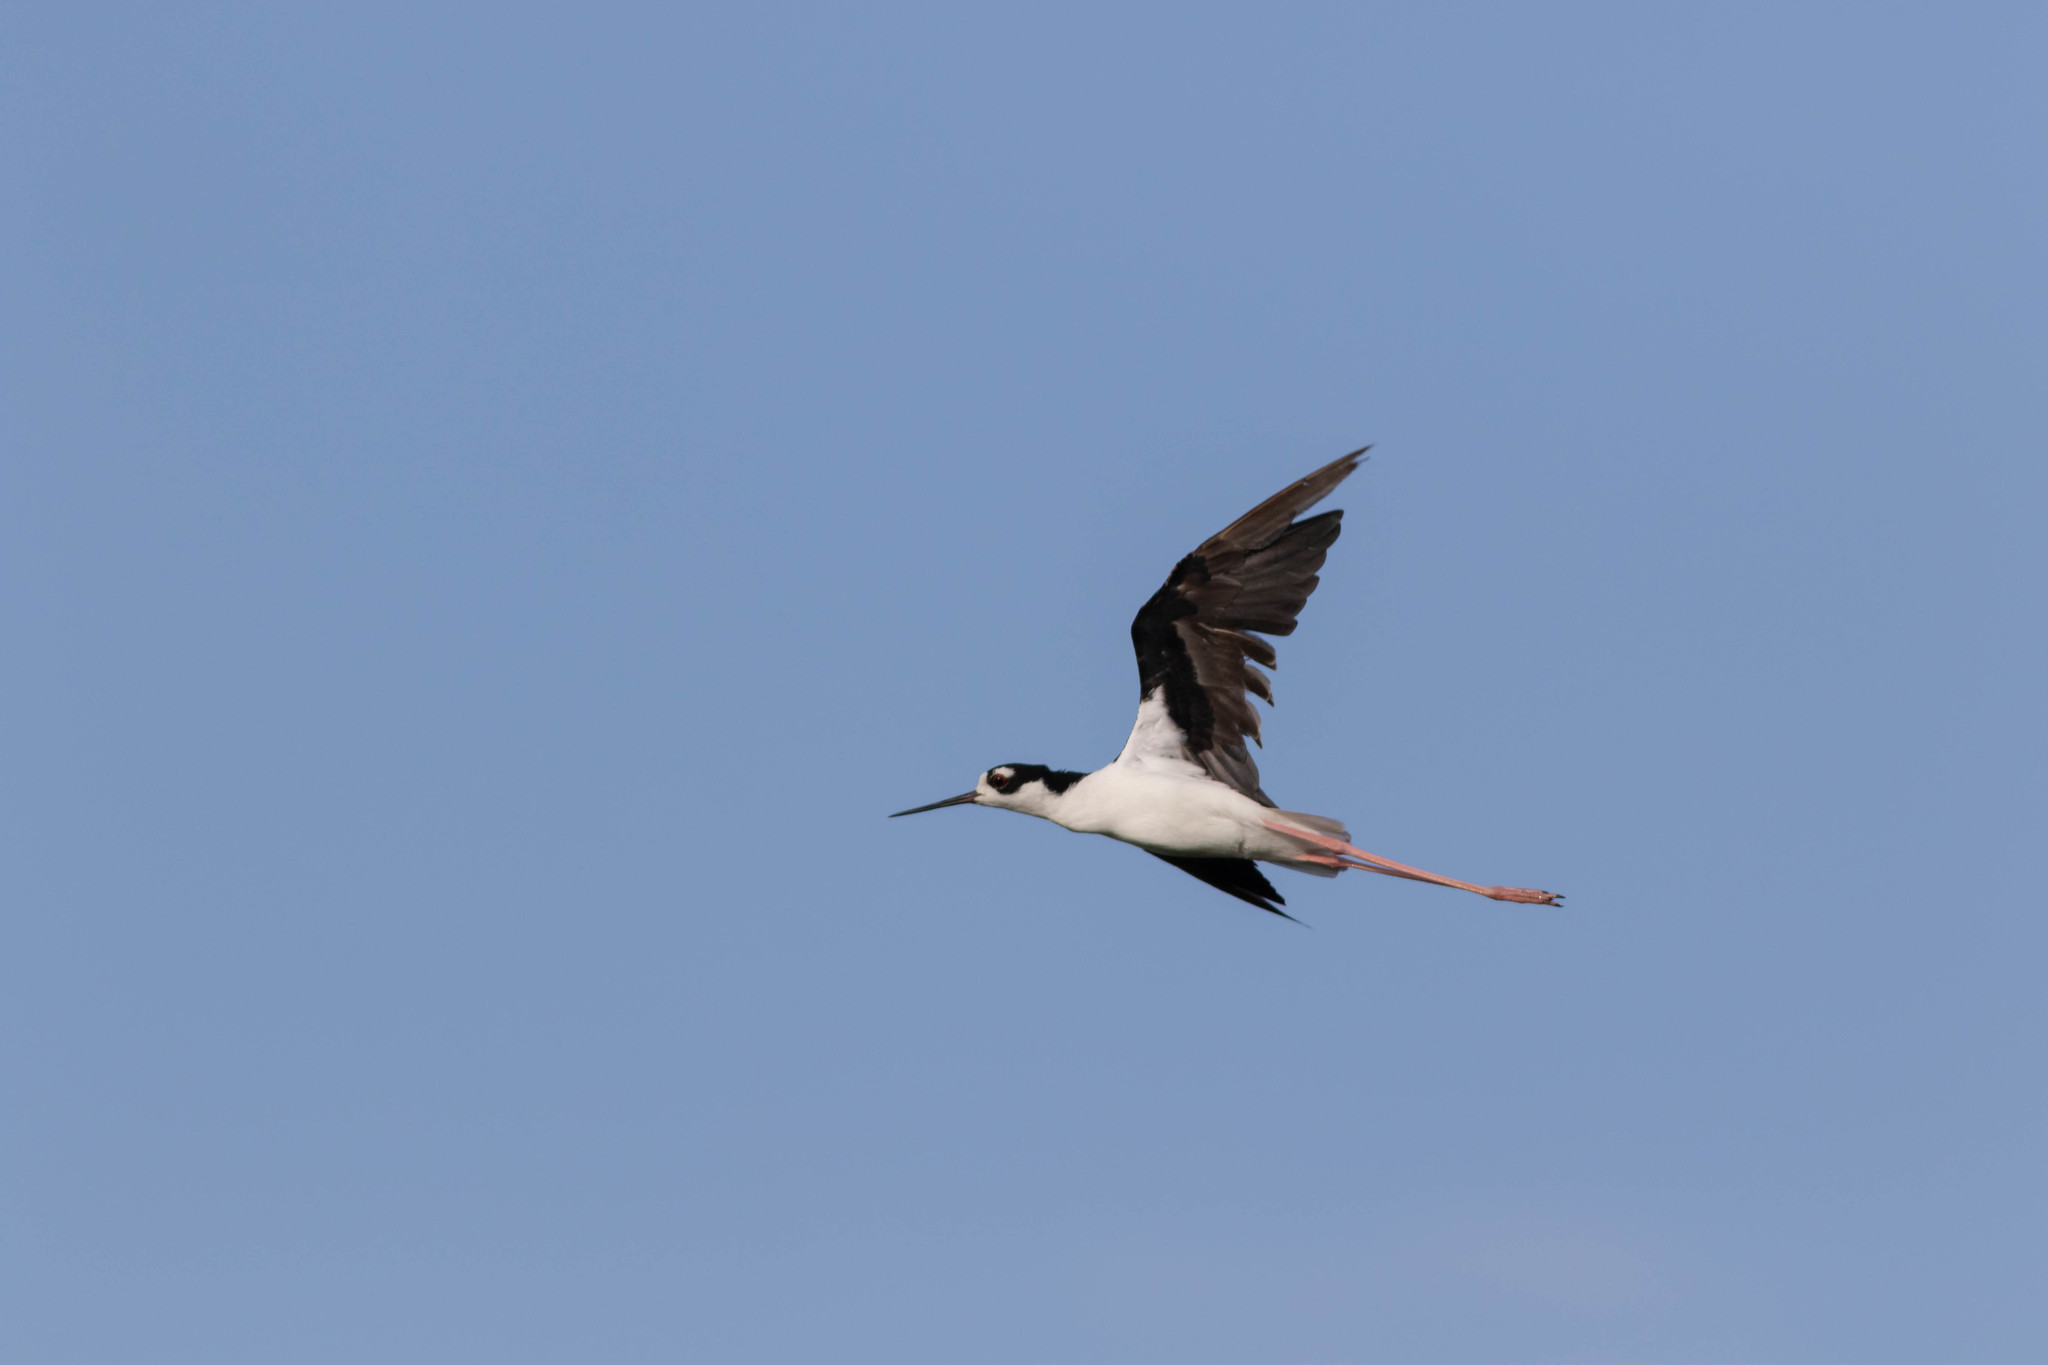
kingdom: Animalia
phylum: Chordata
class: Aves
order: Charadriiformes
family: Recurvirostridae
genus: Himantopus
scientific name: Himantopus mexicanus
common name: Black-necked stilt
